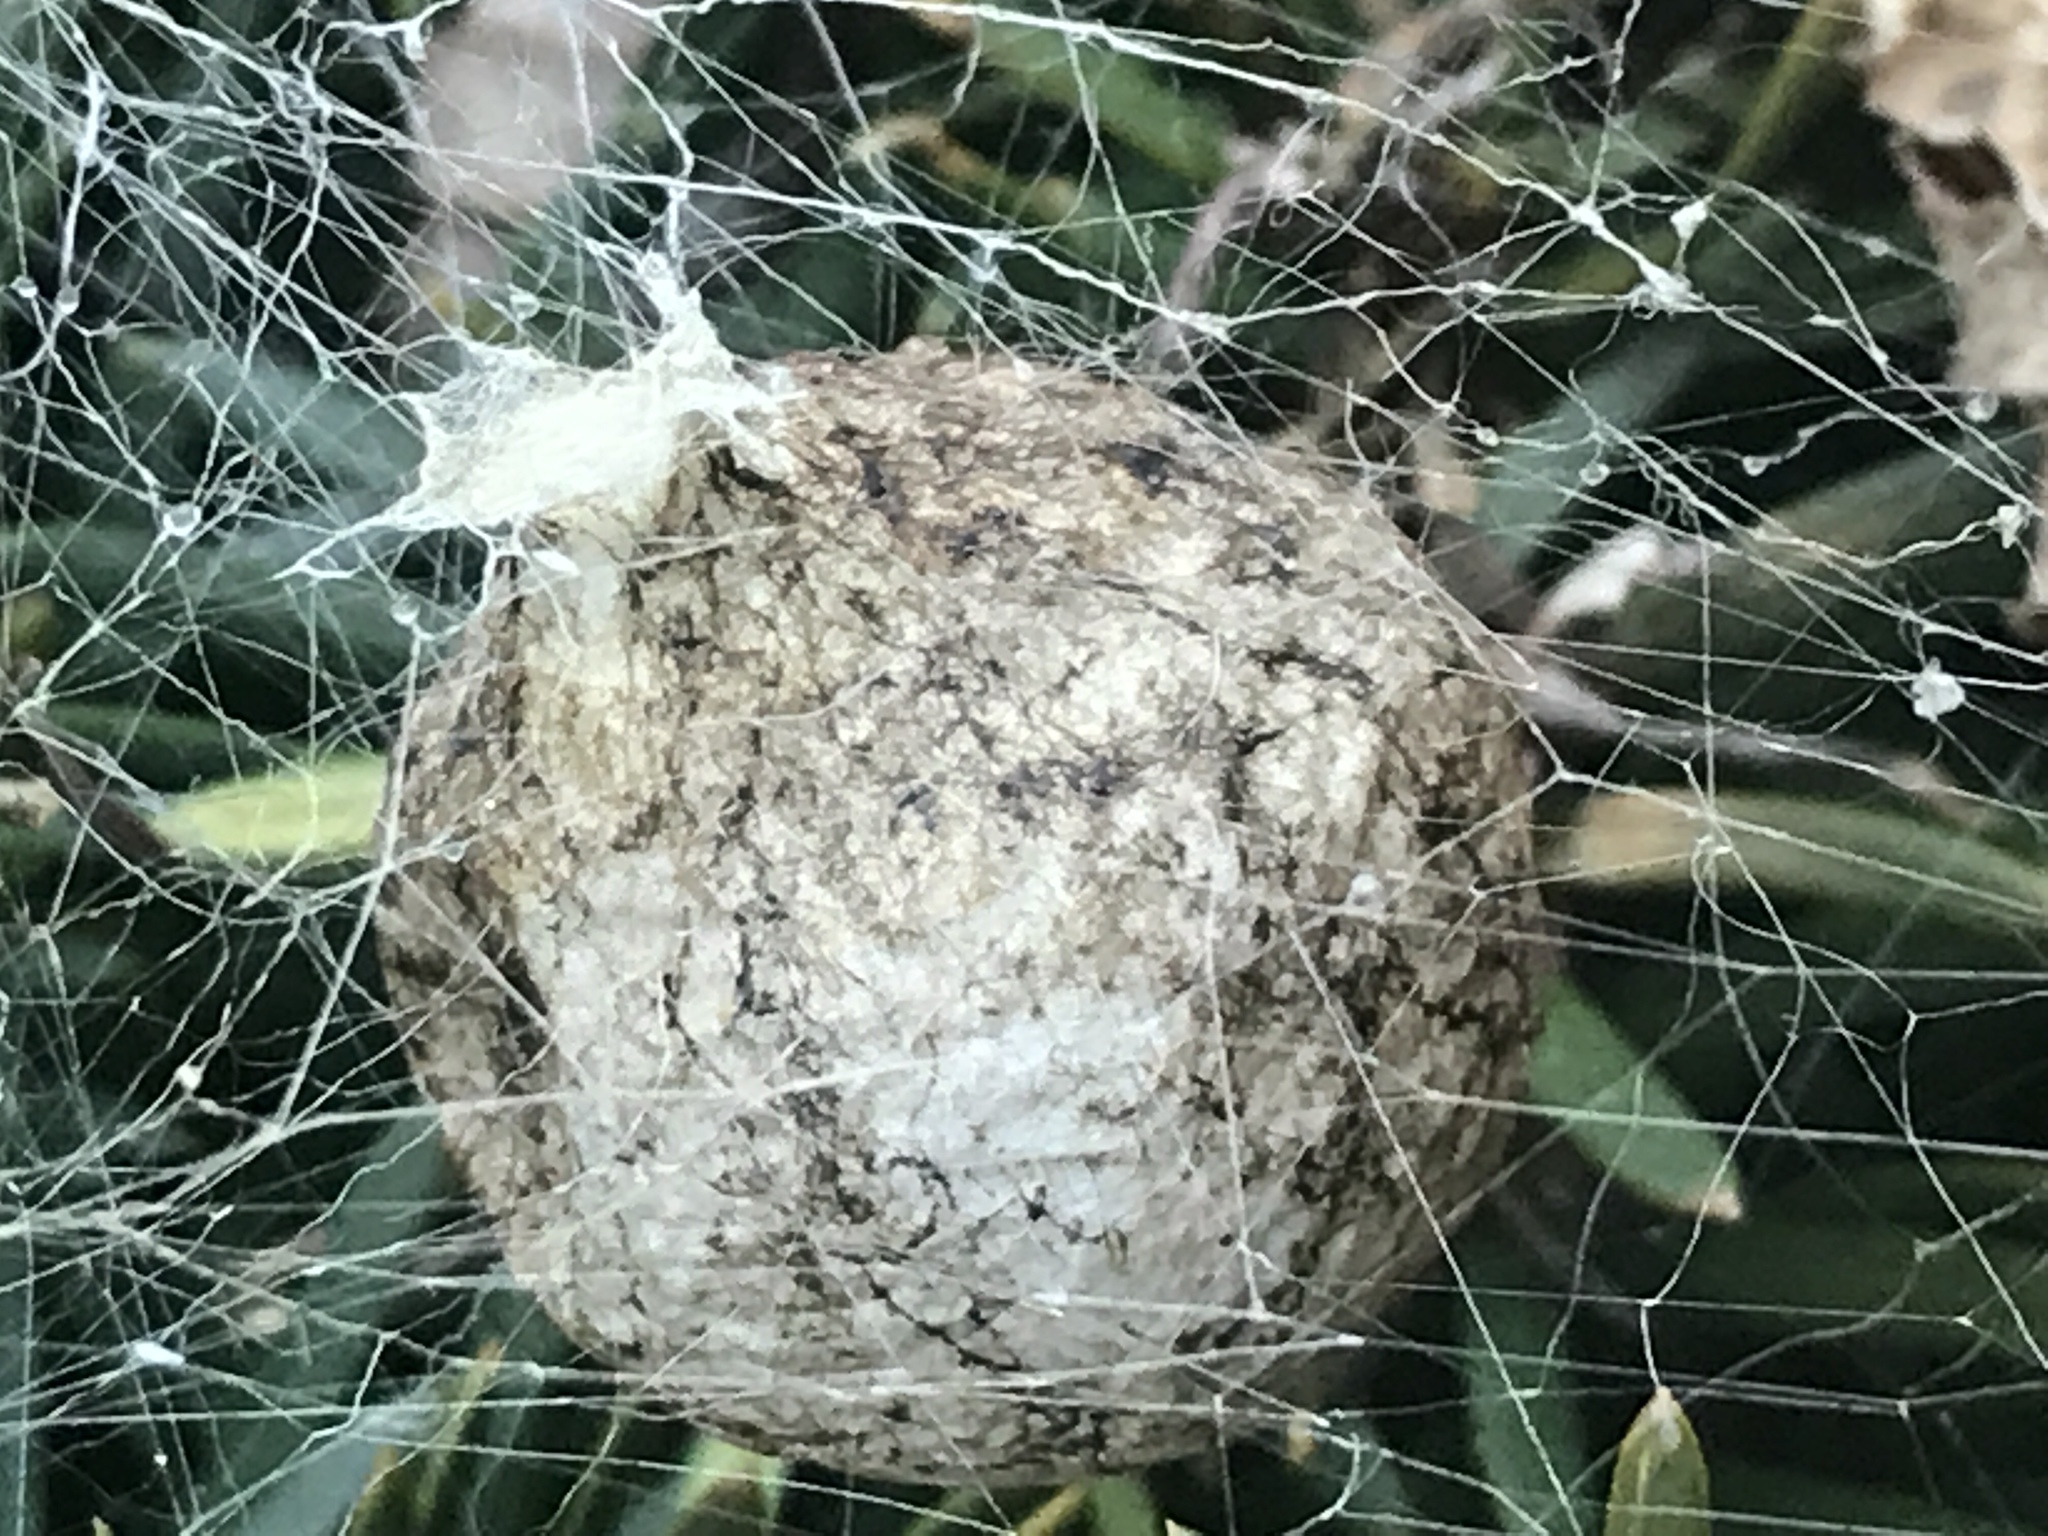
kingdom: Animalia
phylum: Arthropoda
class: Arachnida
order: Araneae
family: Araneidae
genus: Argiope
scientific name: Argiope aurantia
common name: Orb weavers
